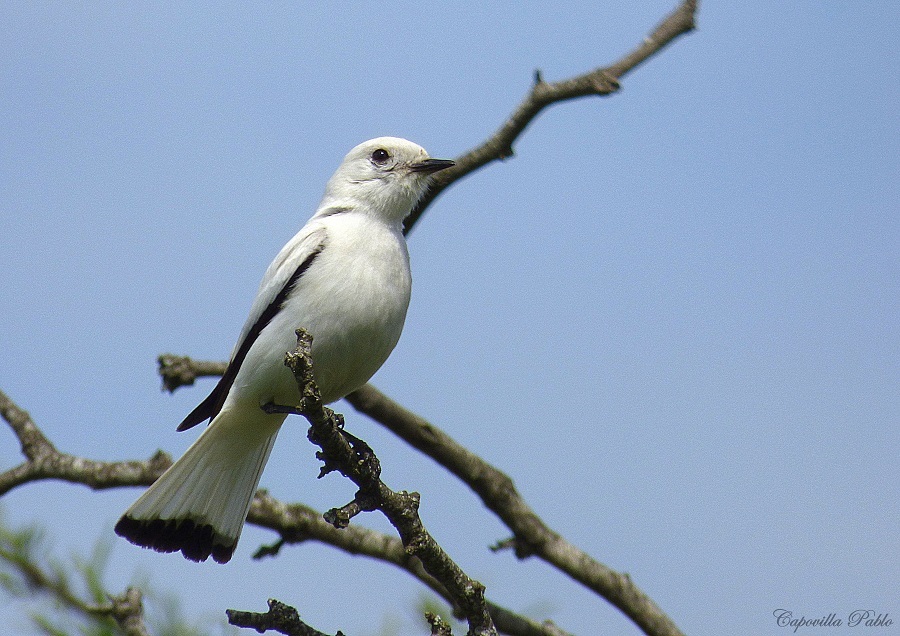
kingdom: Animalia
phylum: Chordata
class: Aves
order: Passeriformes
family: Tyrannidae
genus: Xolmis
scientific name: Xolmis irupero
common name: White monjita
